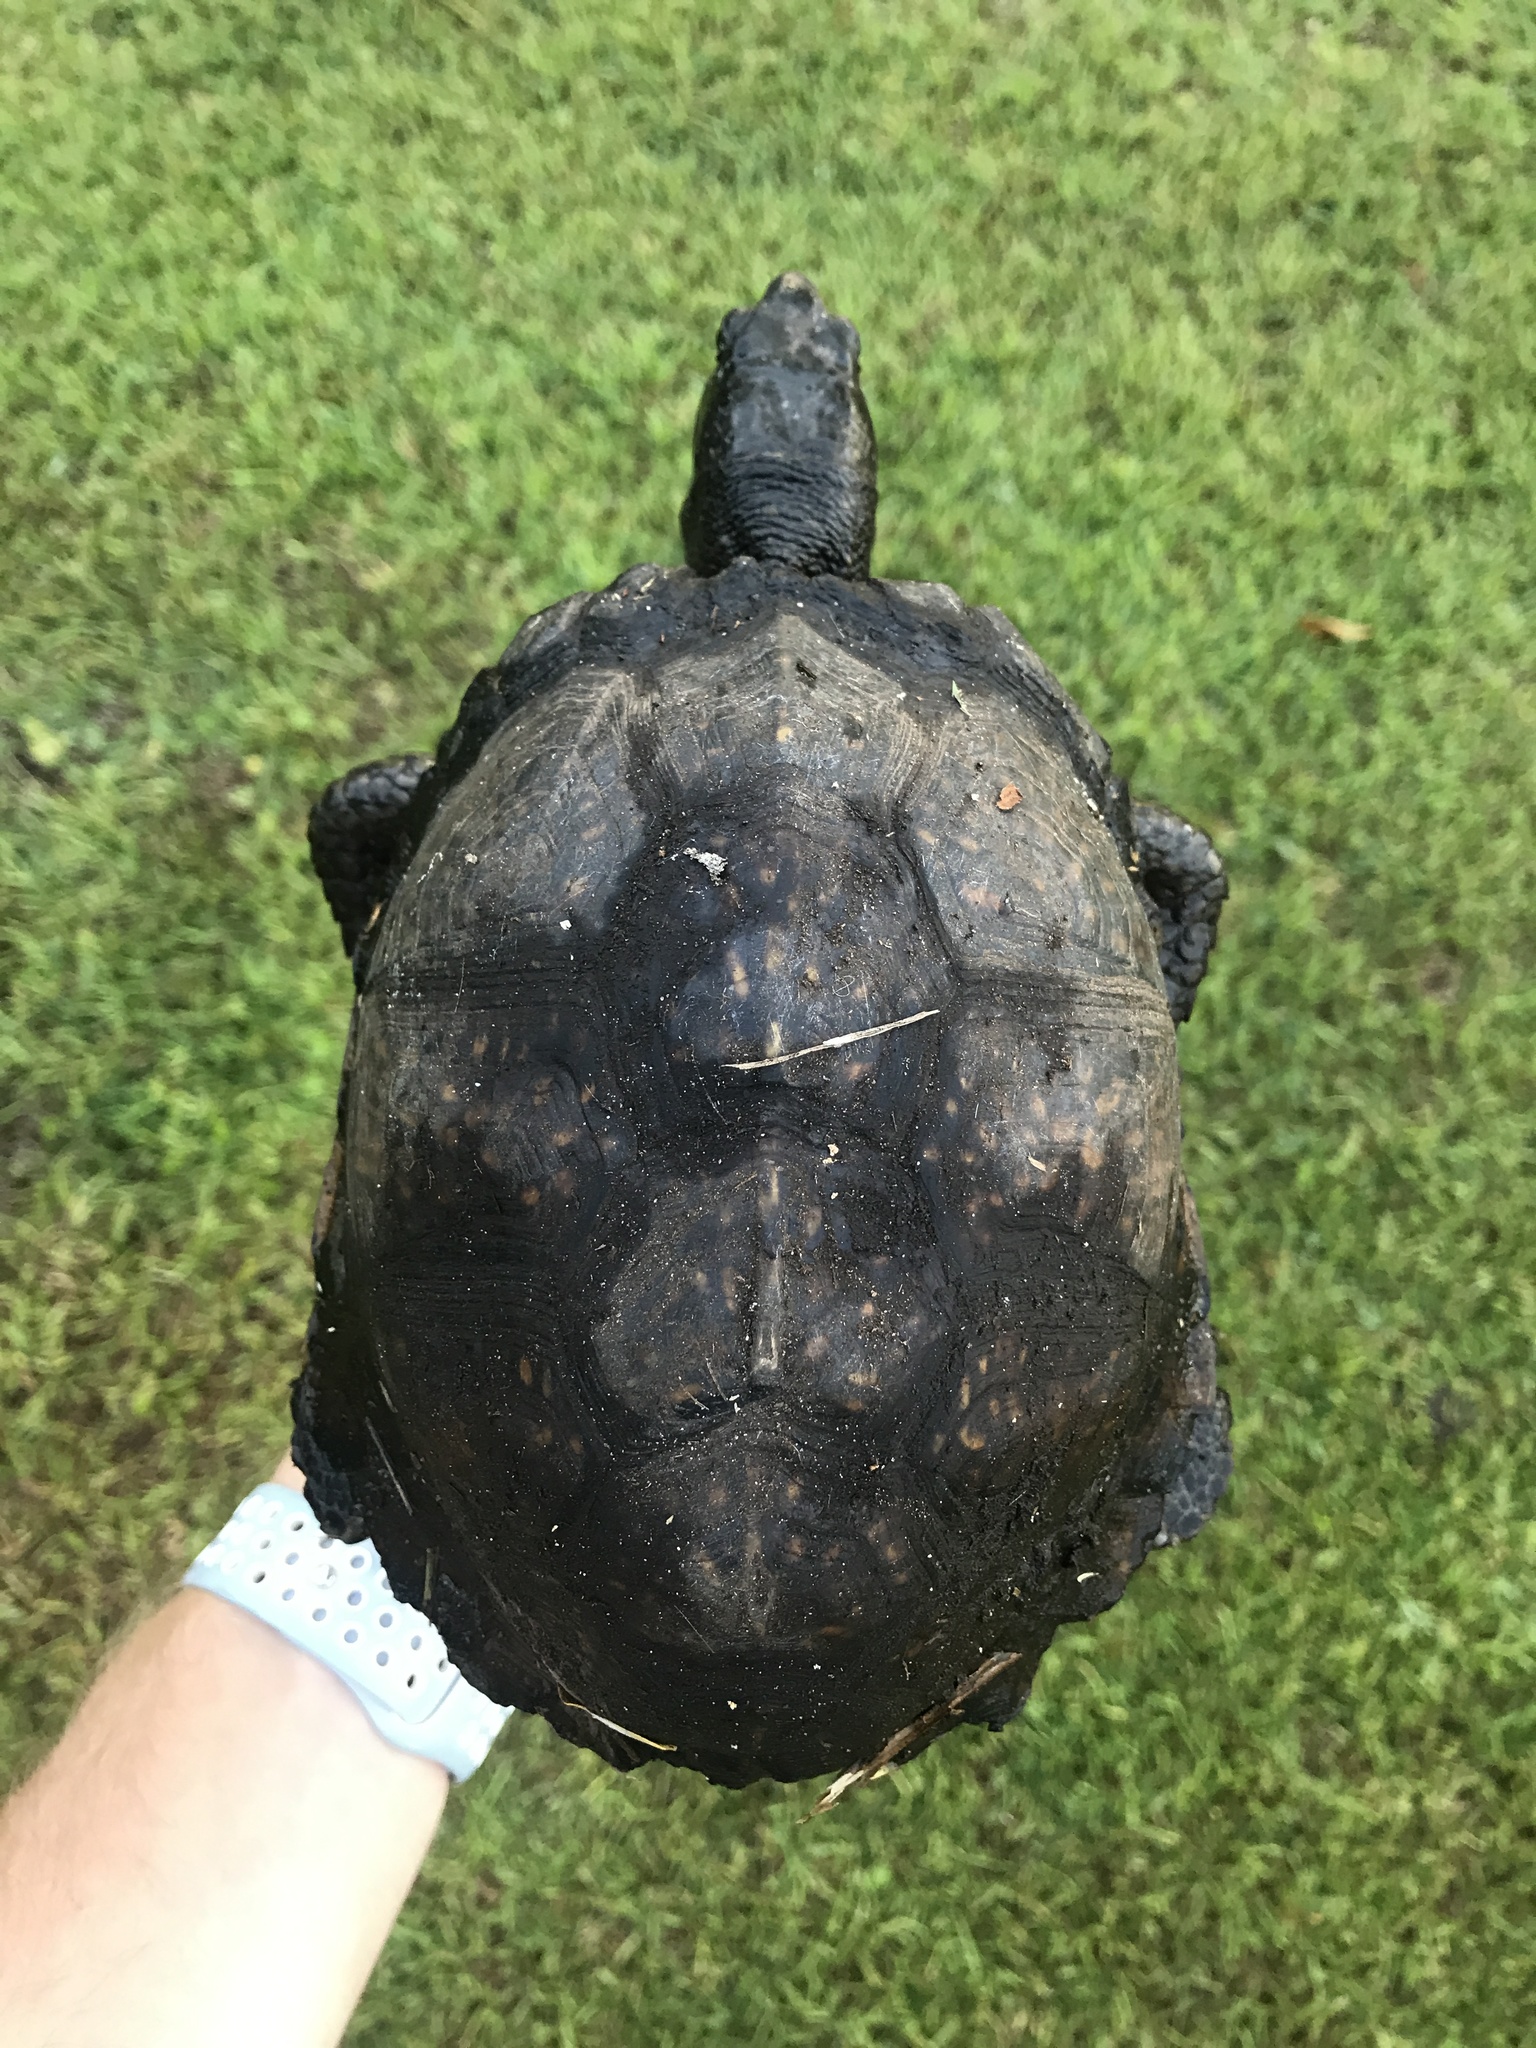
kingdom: Animalia
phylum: Chordata
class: Testudines
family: Emydidae
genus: Terrapene
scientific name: Terrapene carolina
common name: Common box turtle
